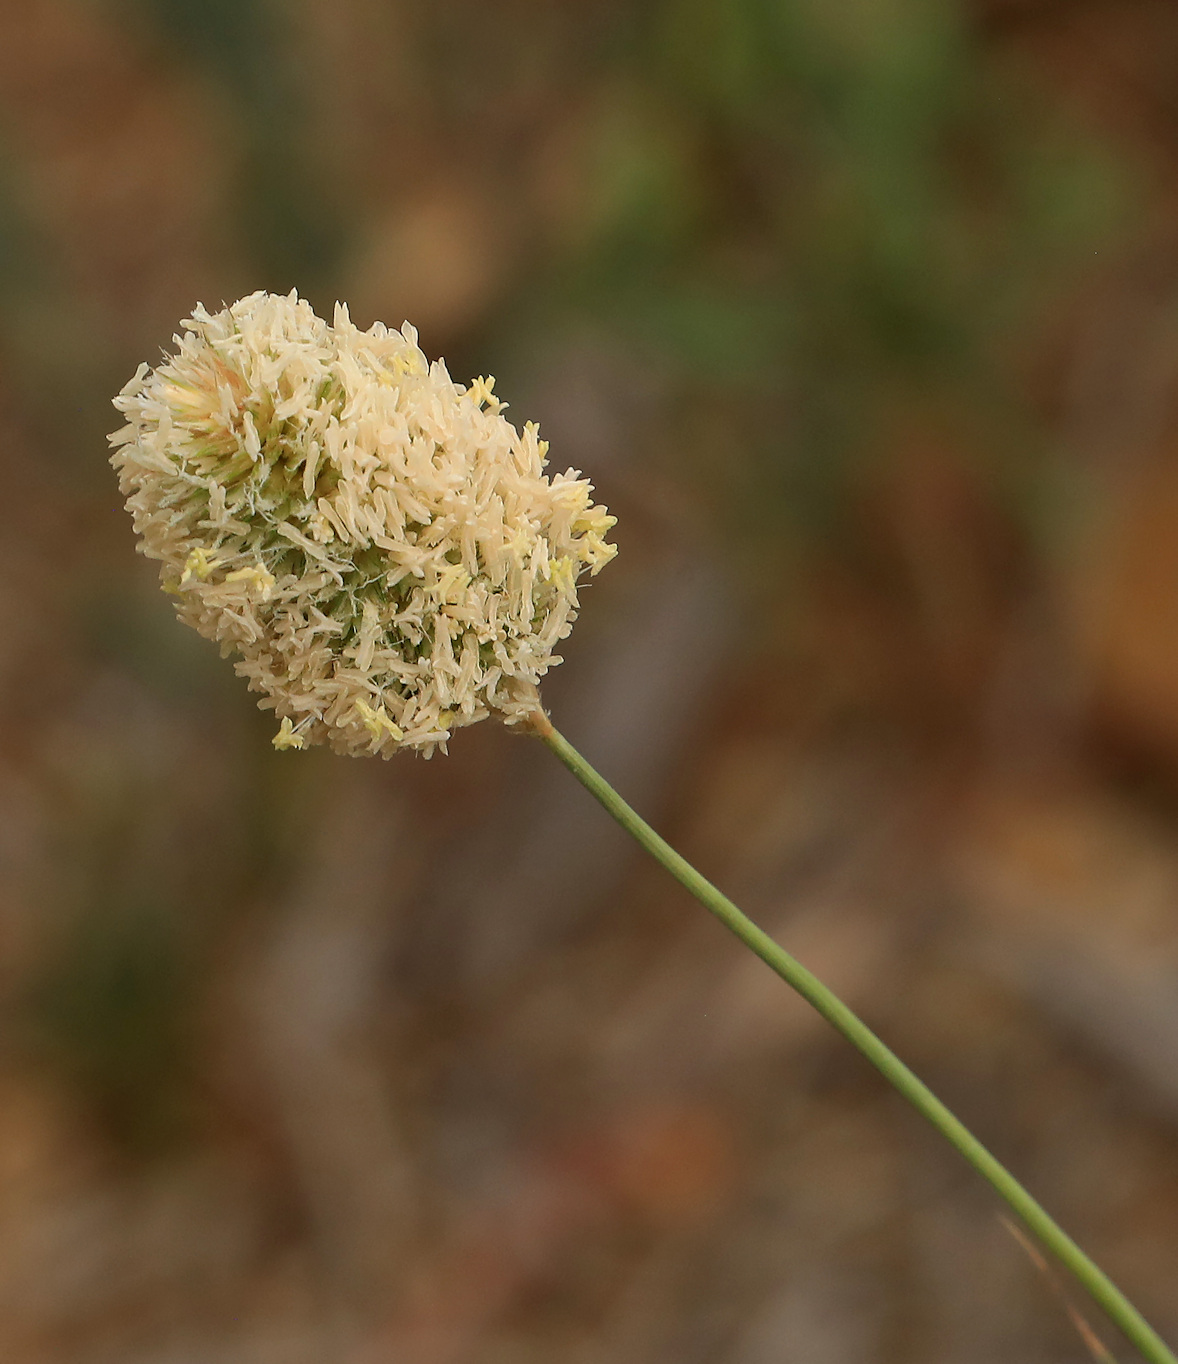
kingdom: Plantae
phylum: Tracheophyta
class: Liliopsida
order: Poales
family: Poaceae
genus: Fingerhuthia
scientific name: Fingerhuthia africana
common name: Zulu fescue
